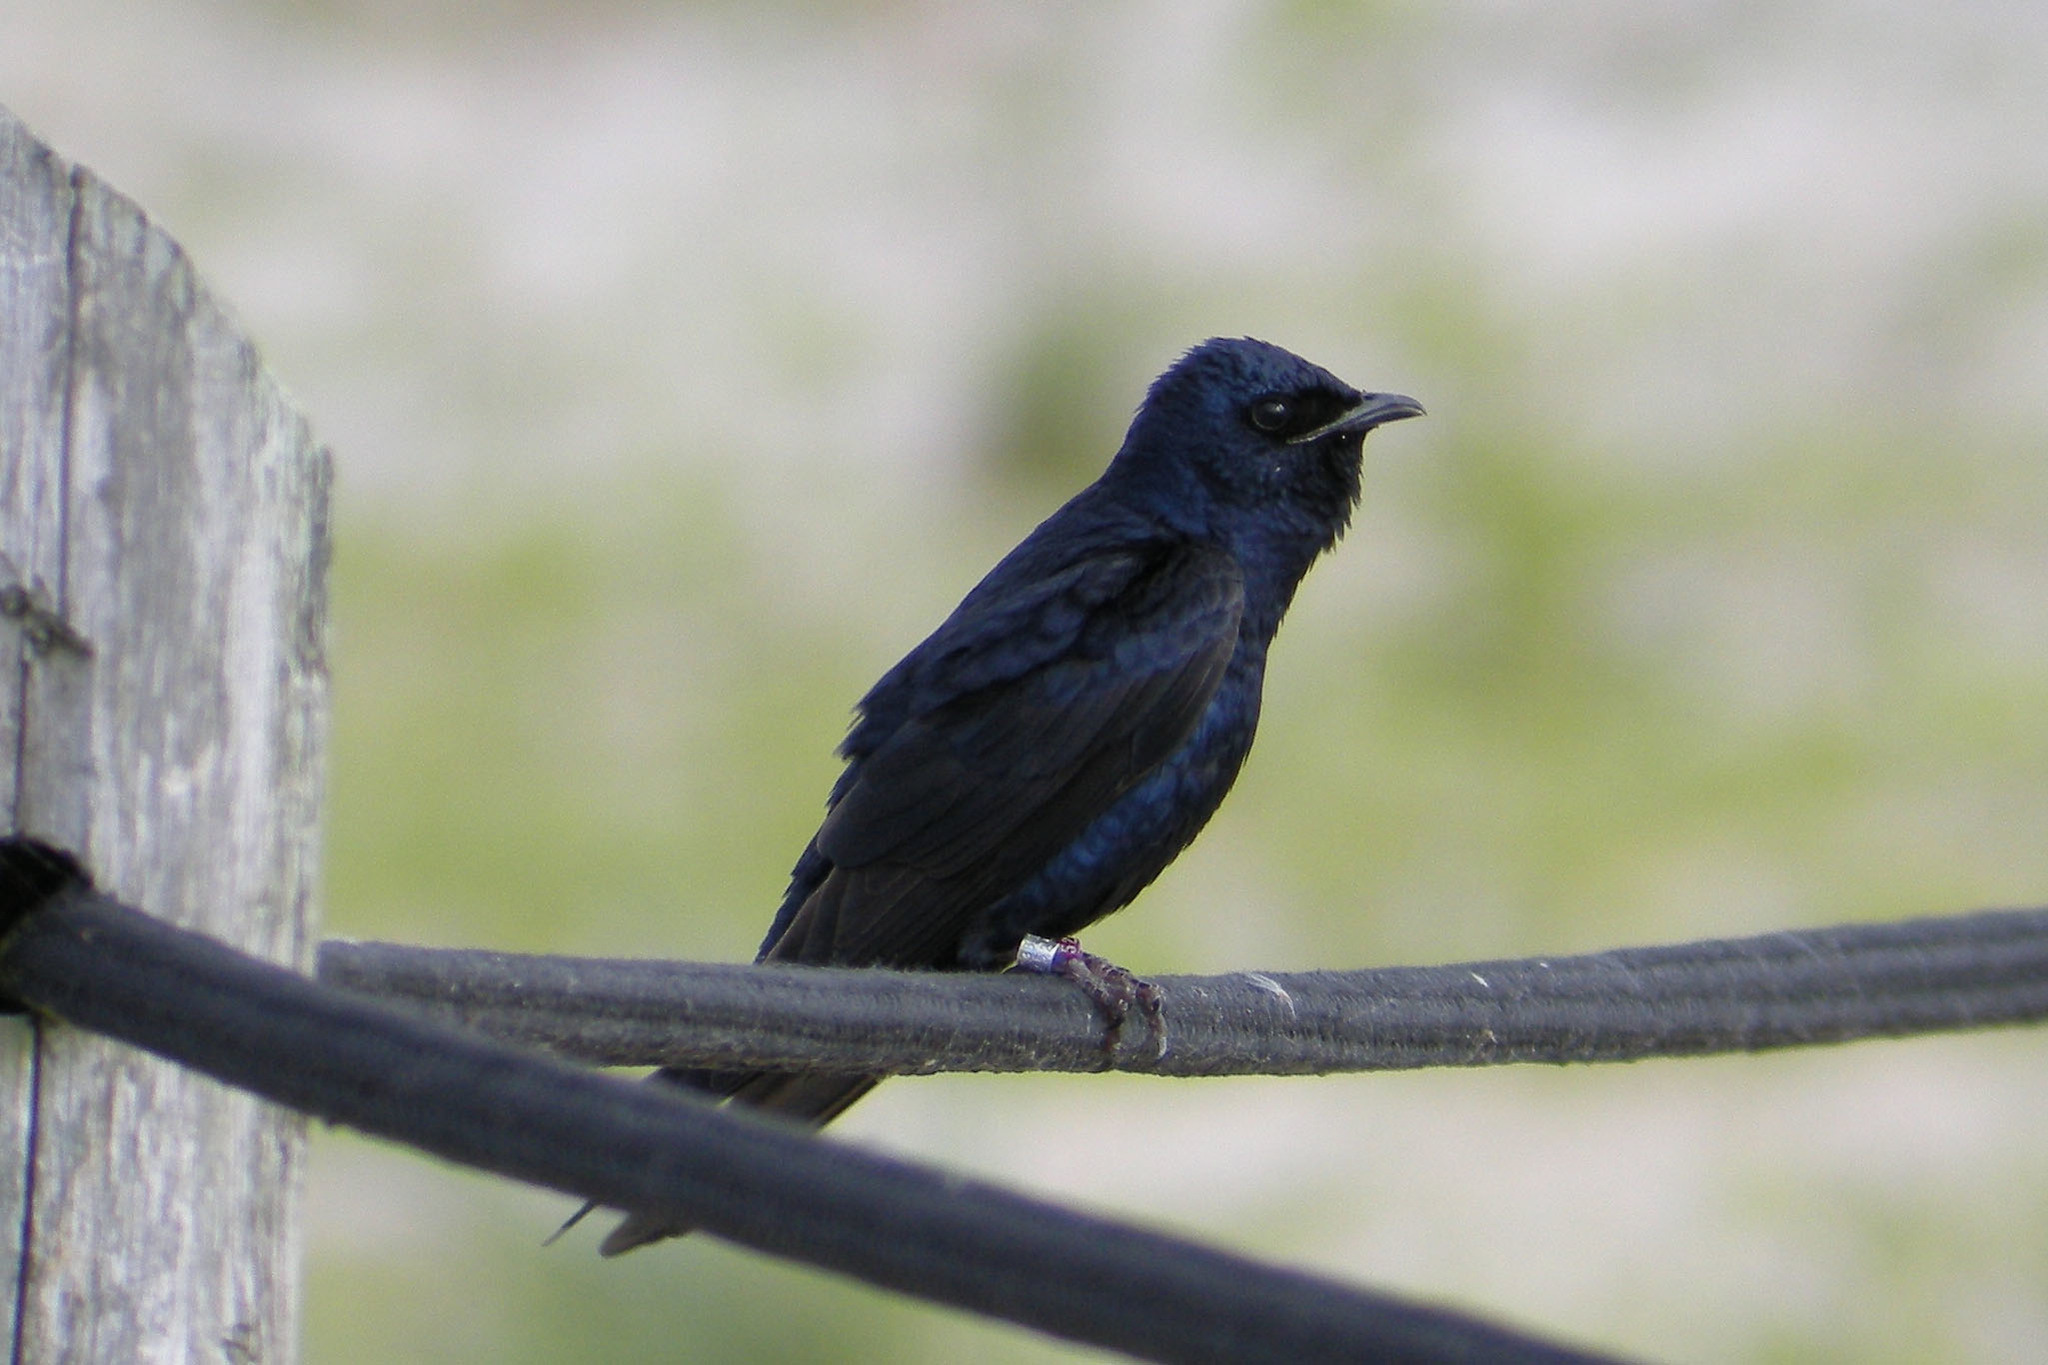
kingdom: Animalia
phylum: Chordata
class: Aves
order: Passeriformes
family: Hirundinidae
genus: Progne
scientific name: Progne subis
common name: Purple martin
